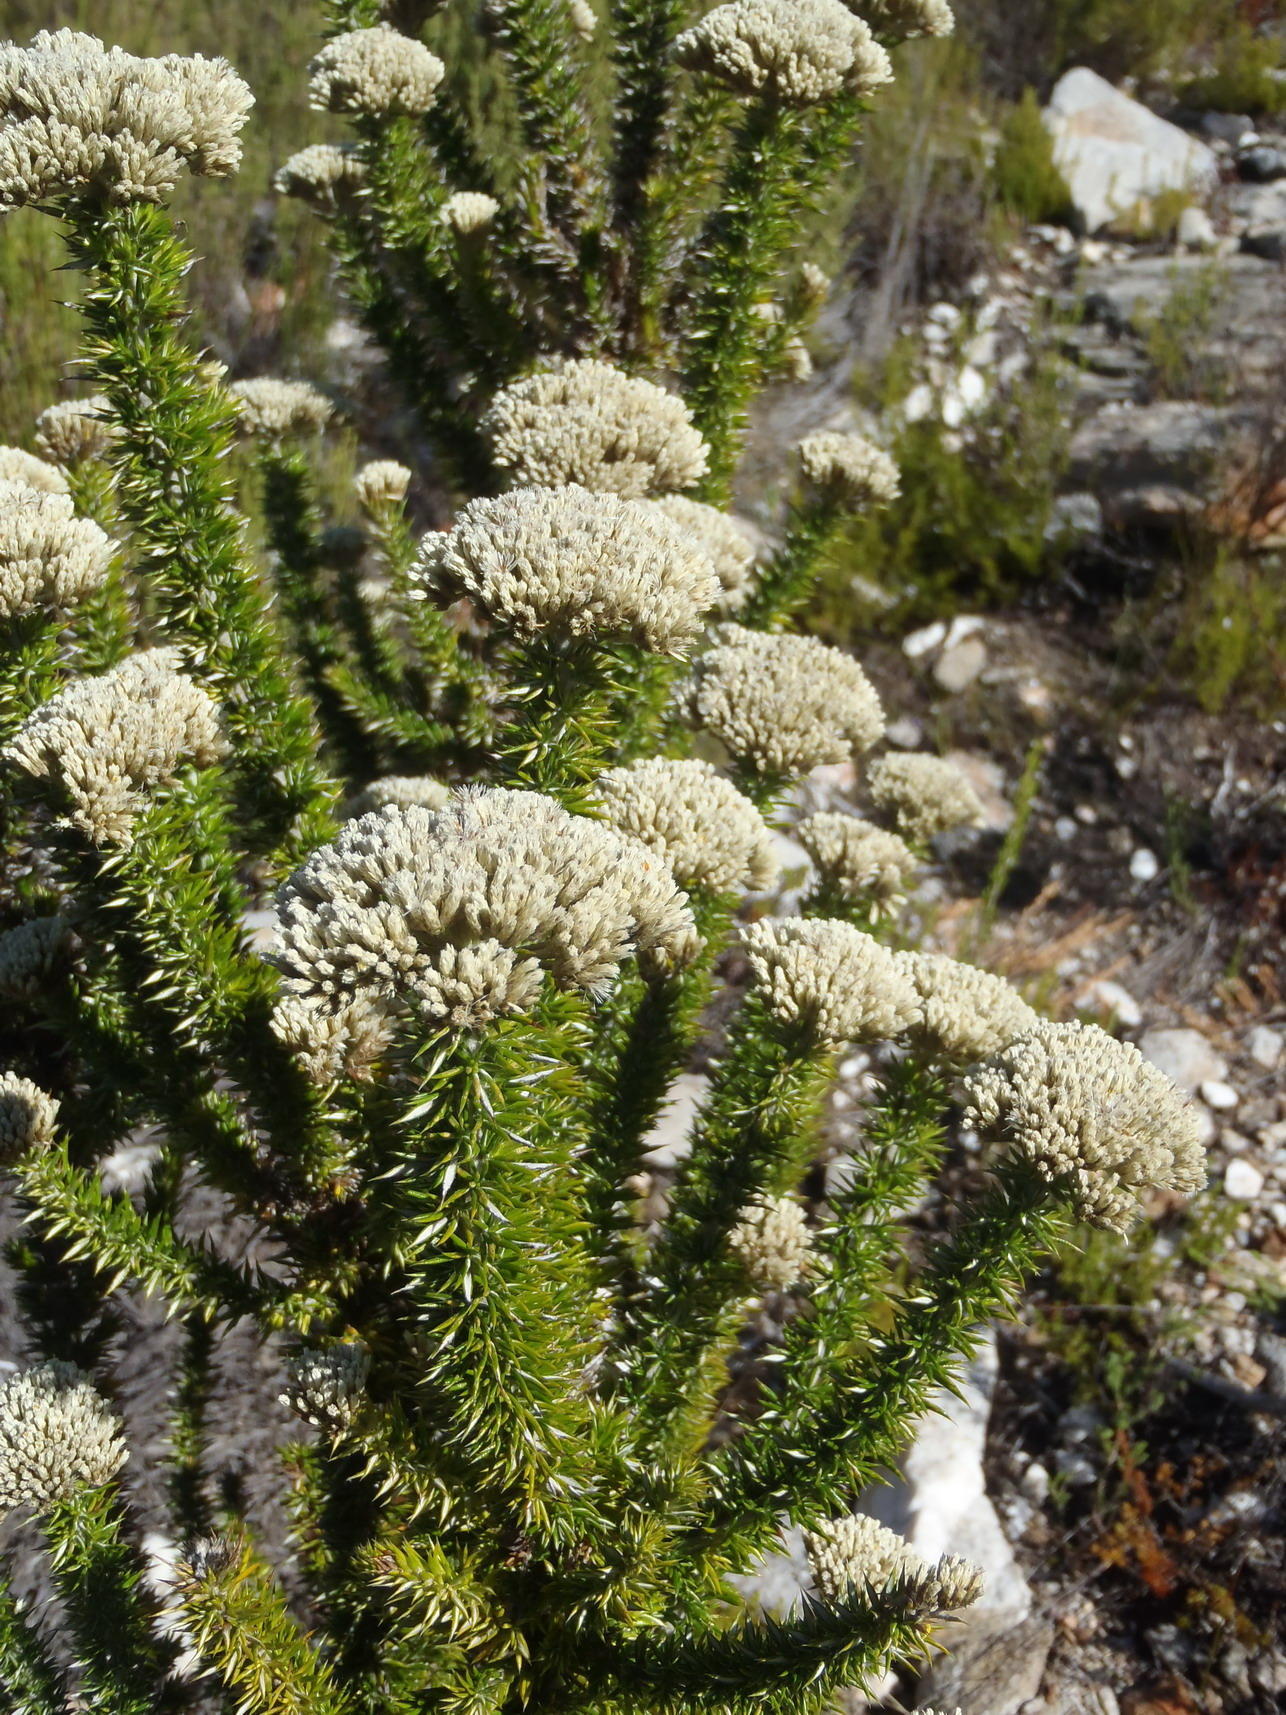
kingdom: Plantae
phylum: Tracheophyta
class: Magnoliopsida
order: Asterales
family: Asteraceae
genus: Metalasia
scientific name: Metalasia acuta
